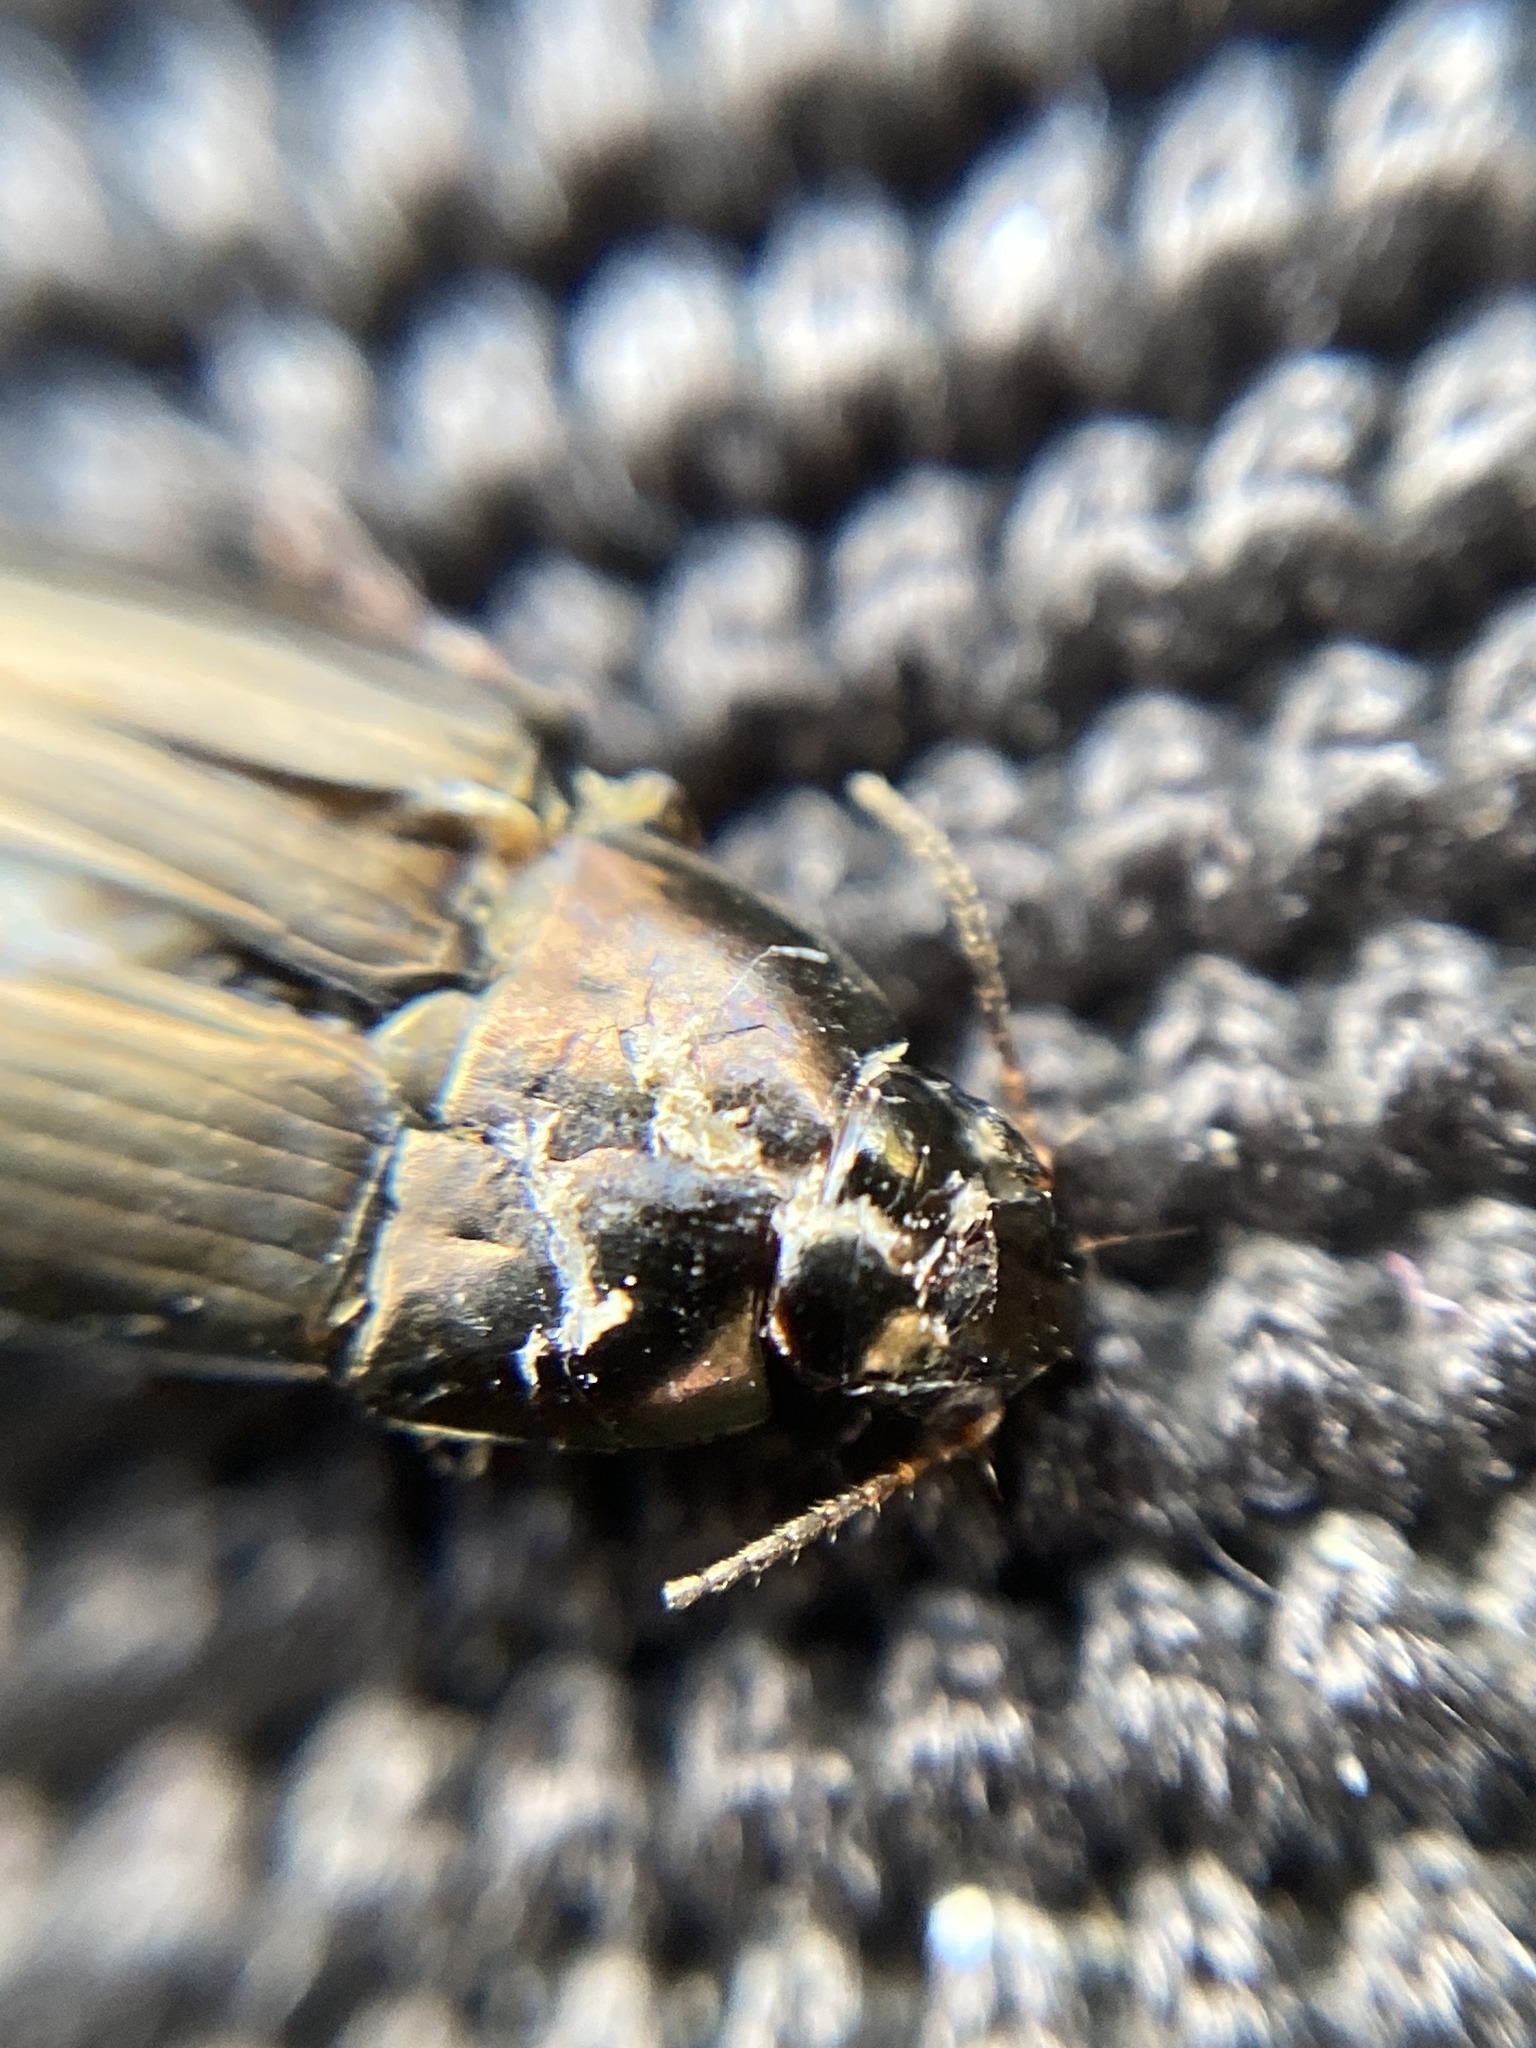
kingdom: Animalia
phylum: Arthropoda
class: Insecta
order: Coleoptera
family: Carabidae
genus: Amara
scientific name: Amara aenea
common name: Common sun beetle
